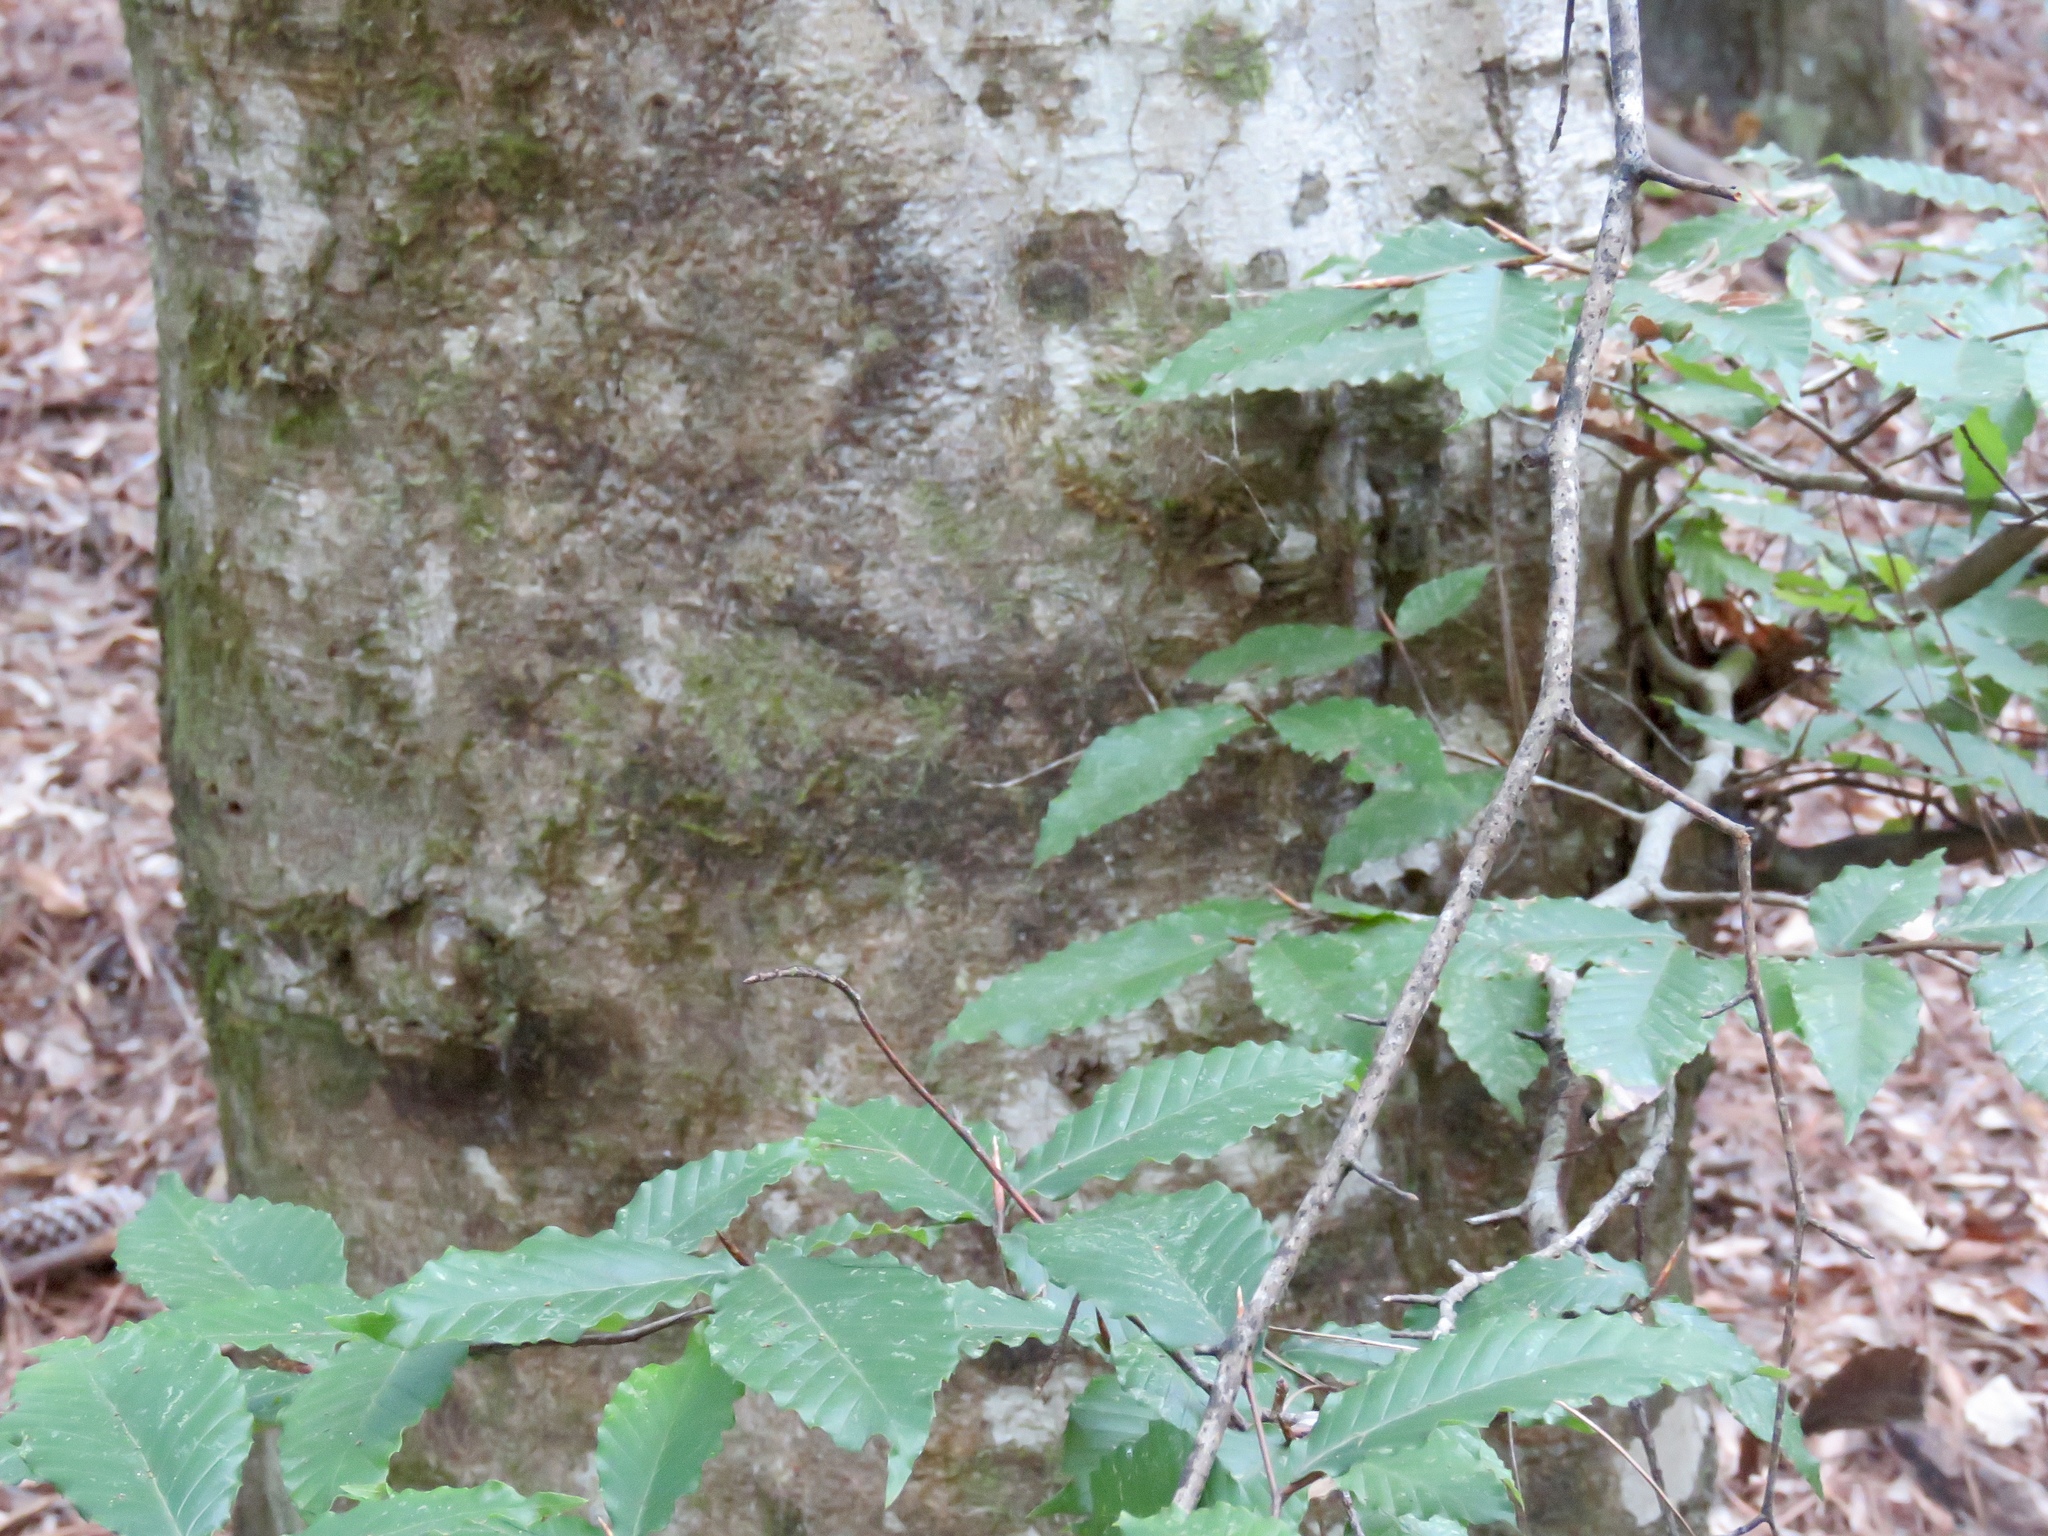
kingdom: Plantae
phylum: Tracheophyta
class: Magnoliopsida
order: Fagales
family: Fagaceae
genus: Fagus
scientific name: Fagus grandifolia
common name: American beech
